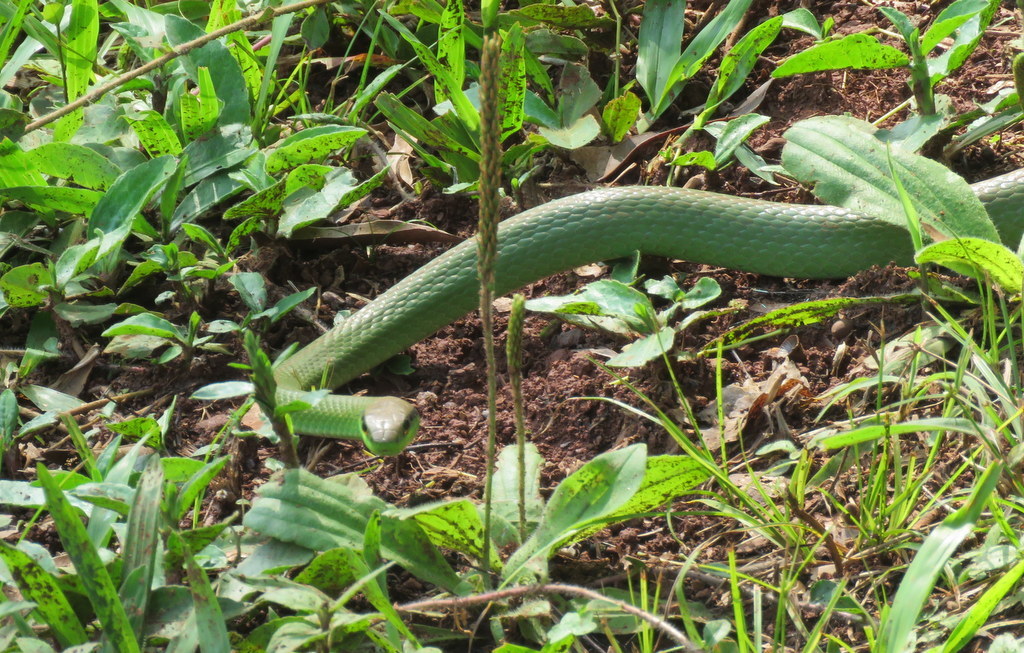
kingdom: Animalia
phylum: Chordata
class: Squamata
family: Colubridae
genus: Philodryas
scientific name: Philodryas olfersii
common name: Lichtenstein's green racer
